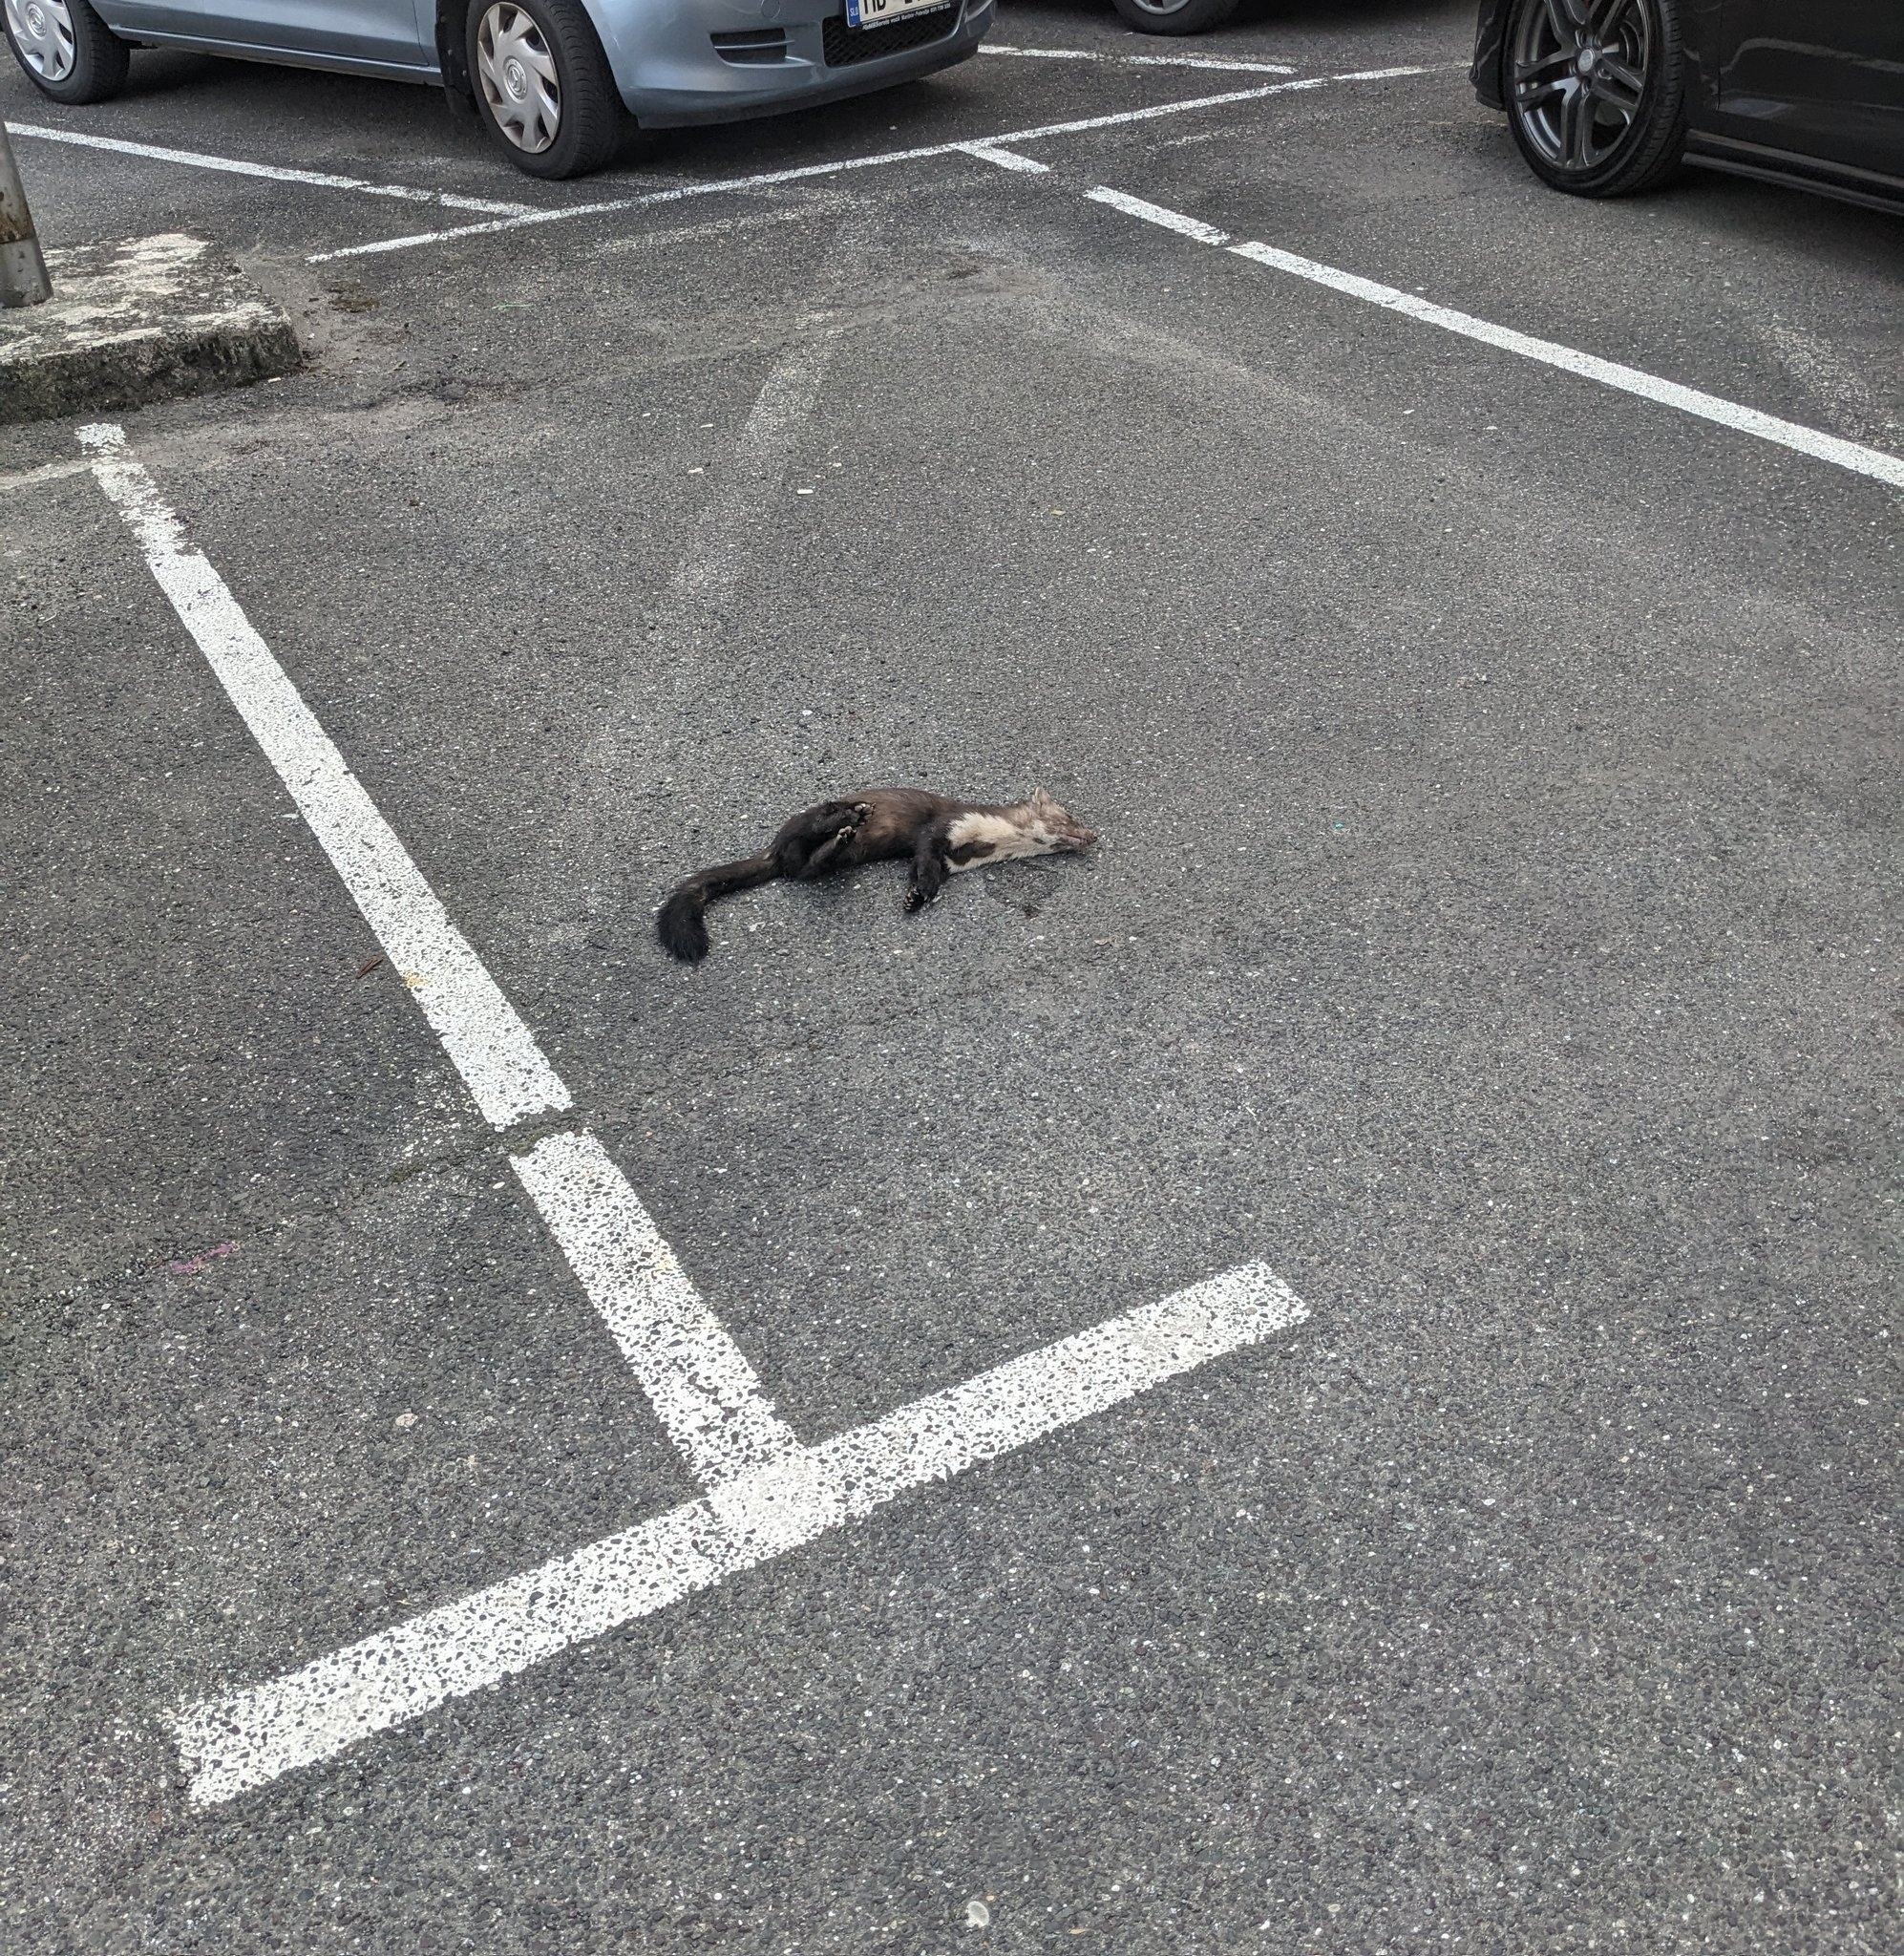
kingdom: Animalia
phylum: Chordata
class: Mammalia
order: Carnivora
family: Mustelidae
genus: Martes
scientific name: Martes foina
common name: Beech marten
